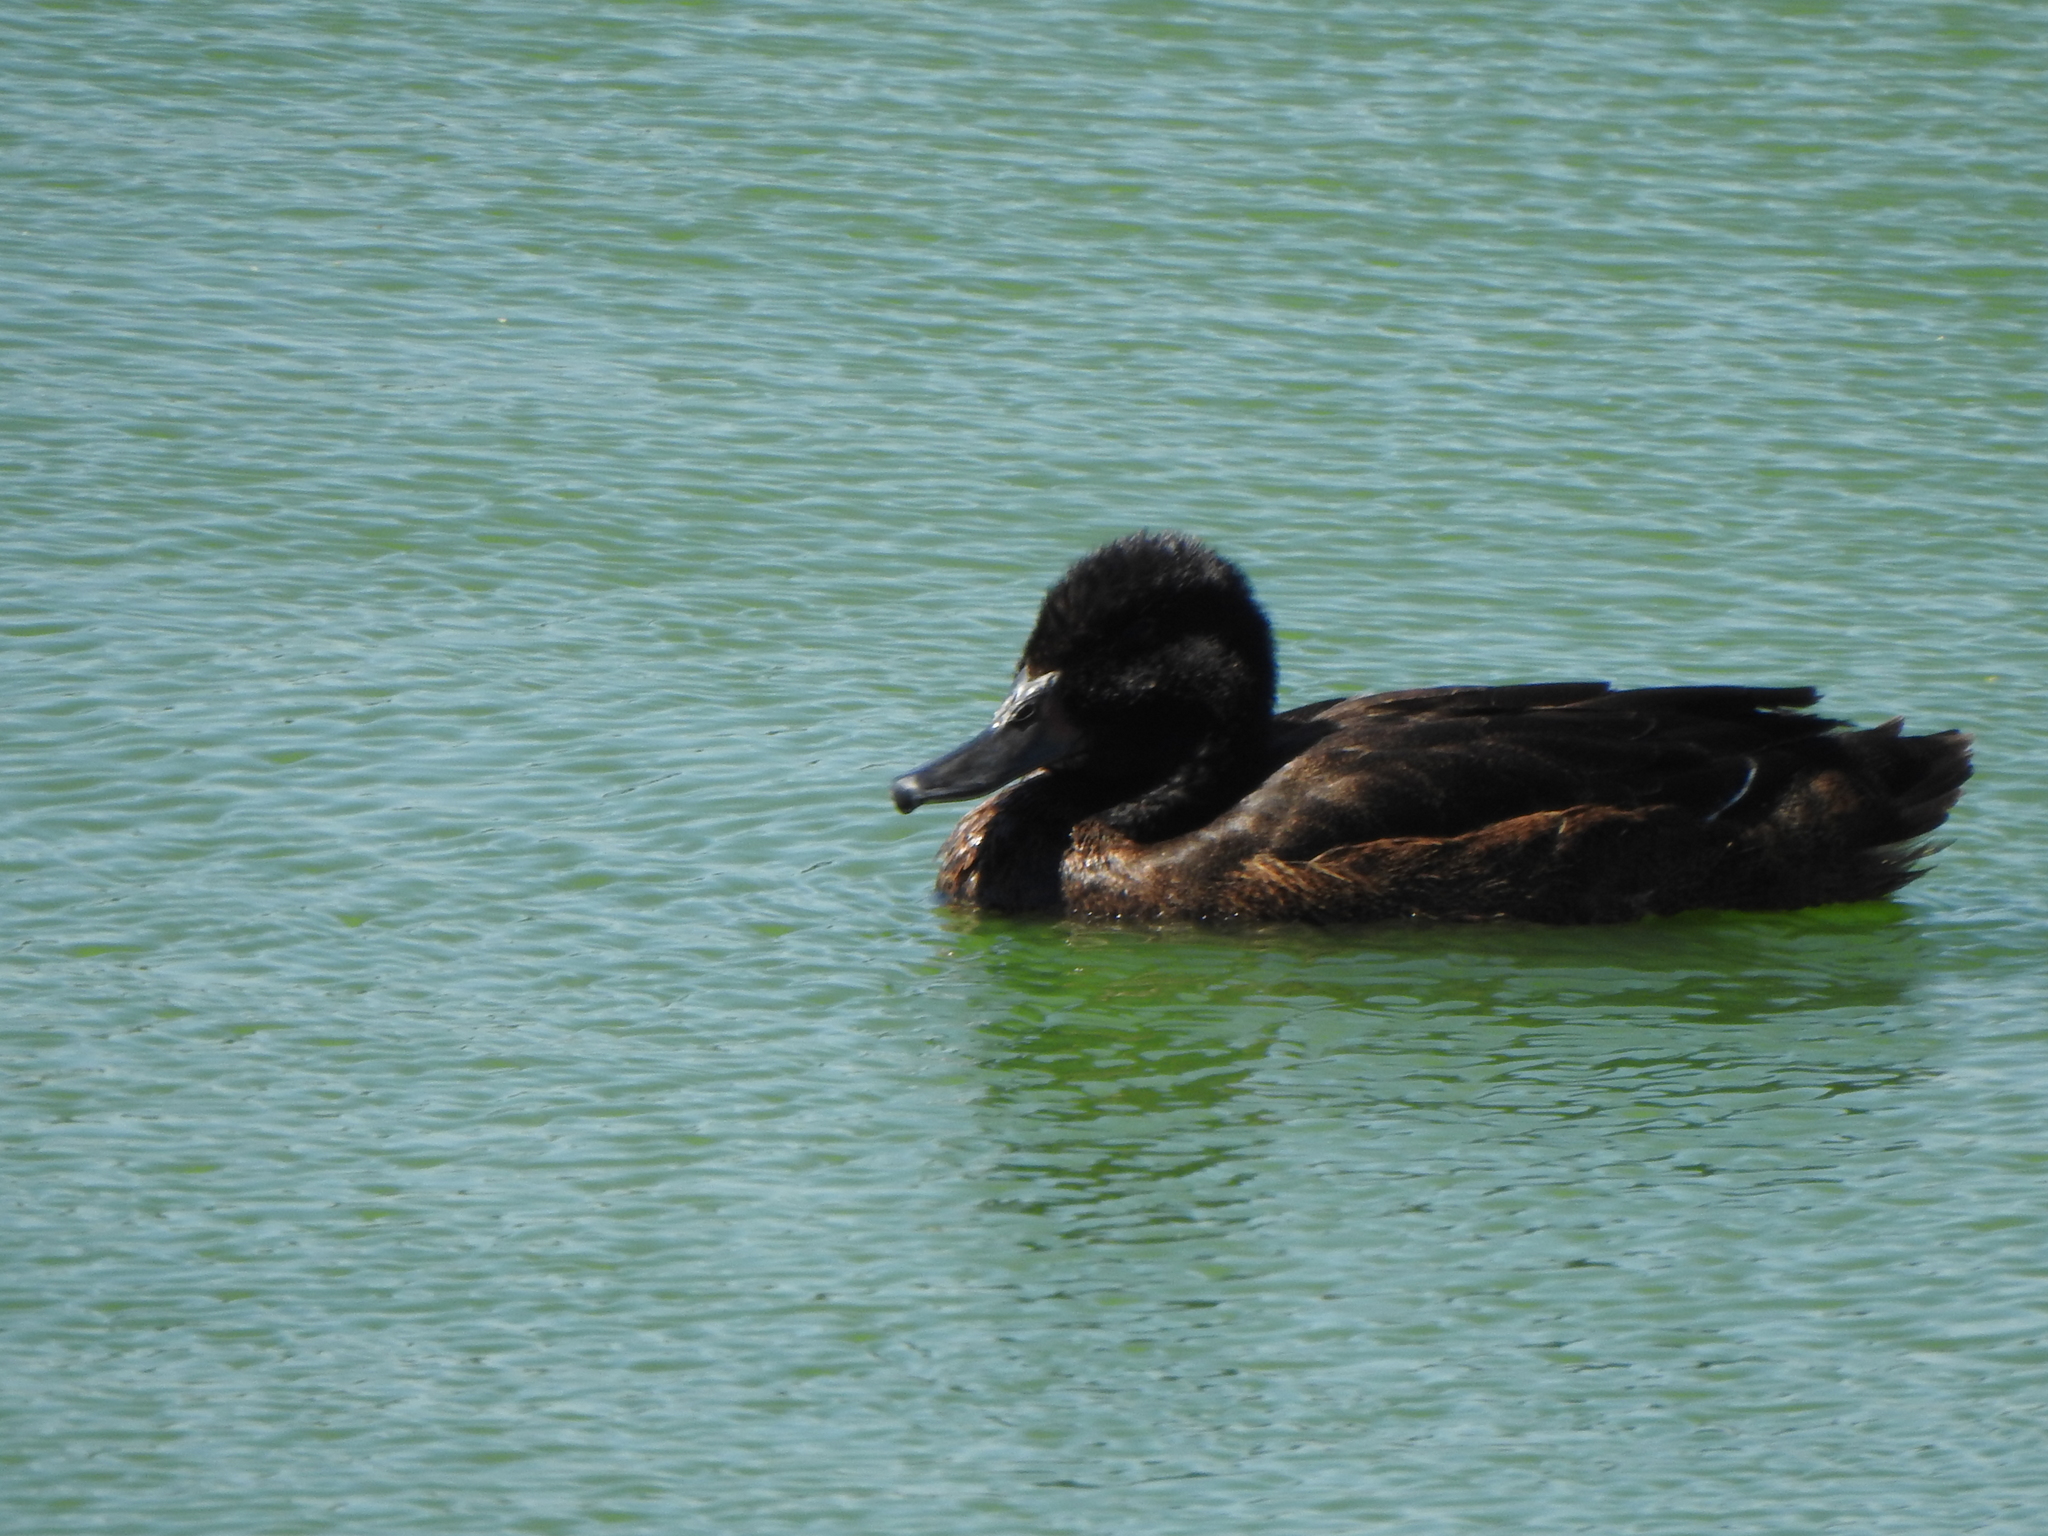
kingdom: Animalia
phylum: Chordata
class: Aves
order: Anseriformes
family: Anatidae
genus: Heteronetta
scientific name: Heteronetta atricapilla
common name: Black-headed duck
